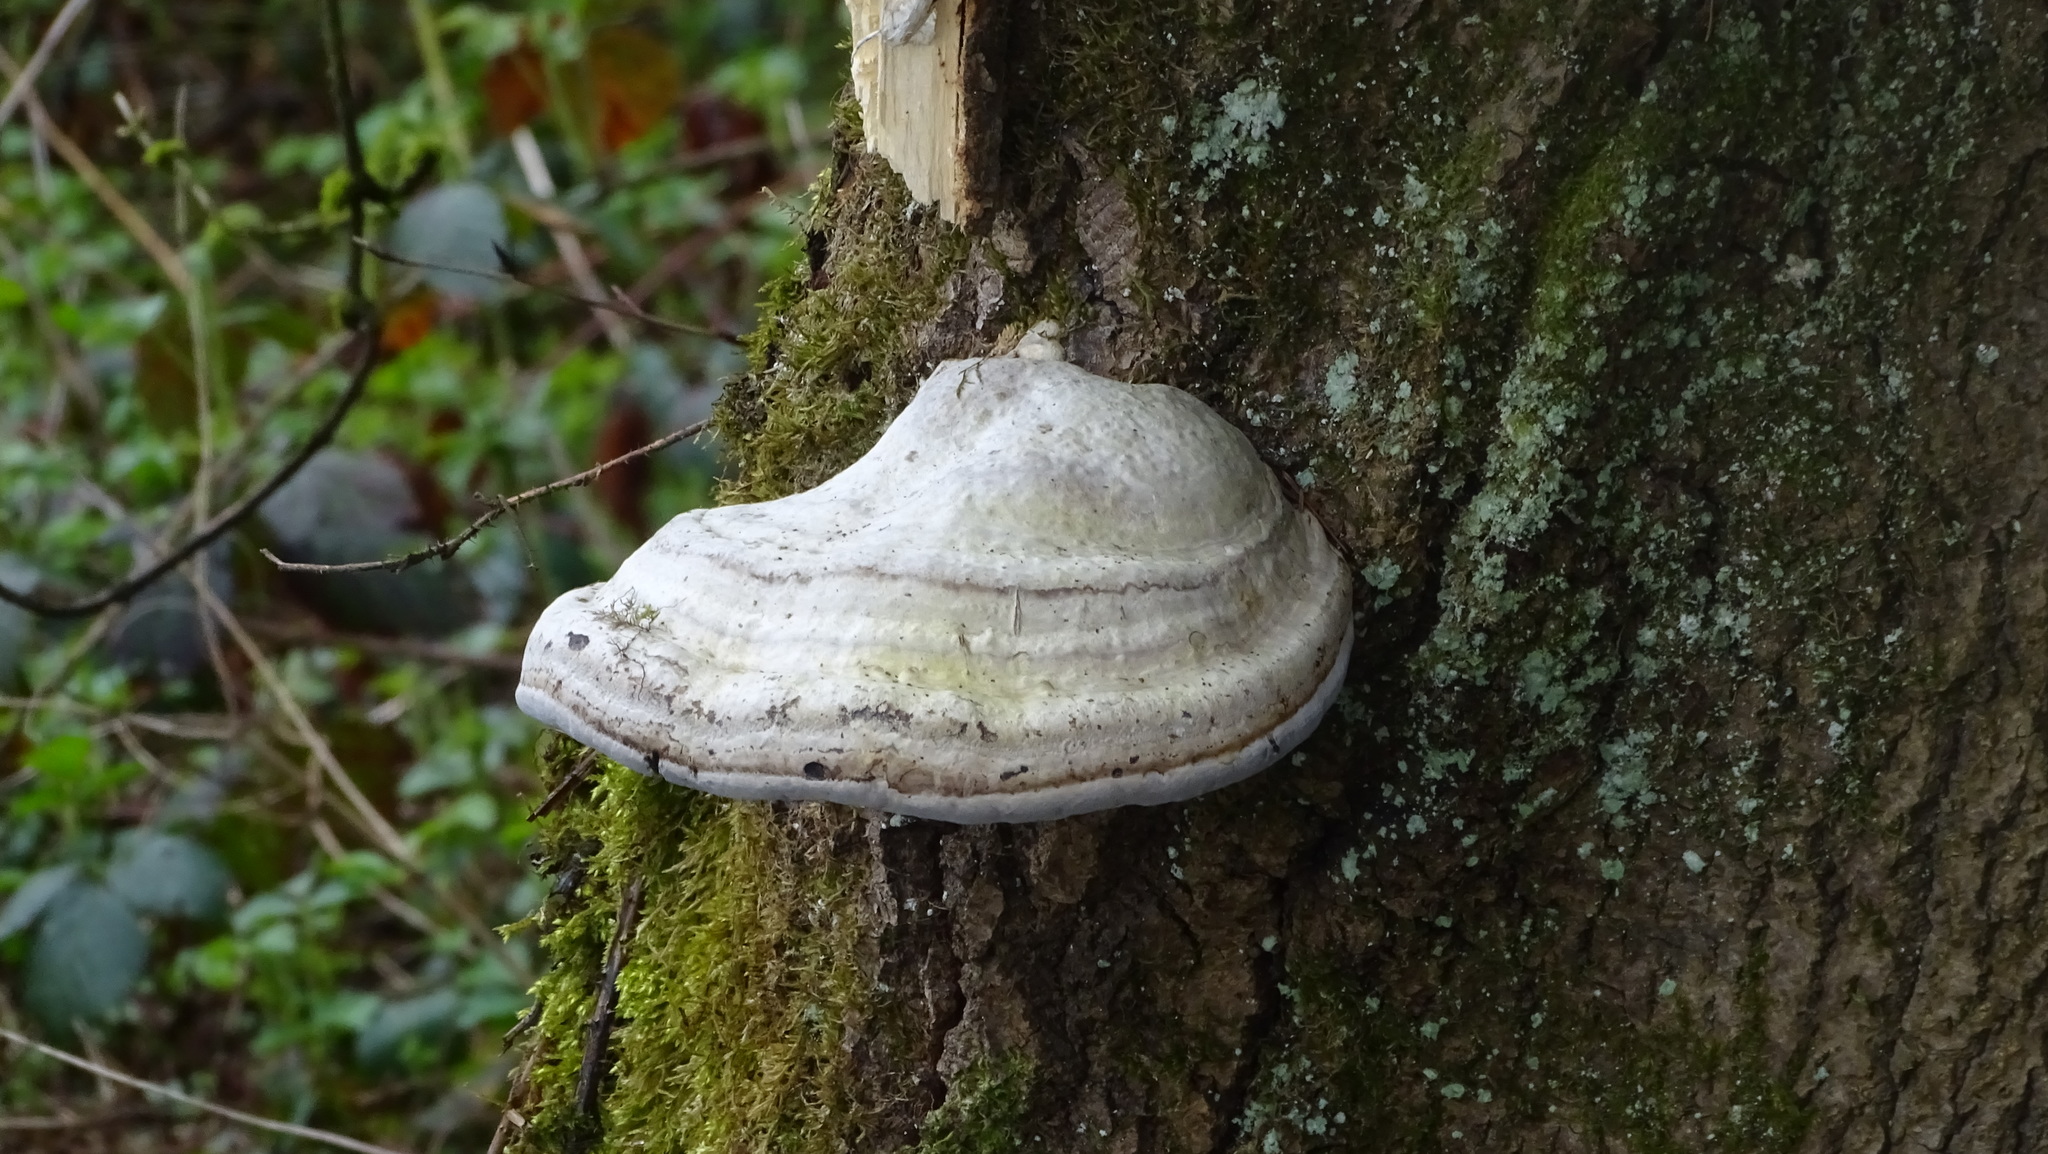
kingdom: Fungi
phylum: Basidiomycota
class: Agaricomycetes
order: Polyporales
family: Polyporaceae
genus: Fomes
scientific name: Fomes fomentarius
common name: Hoof fungus
